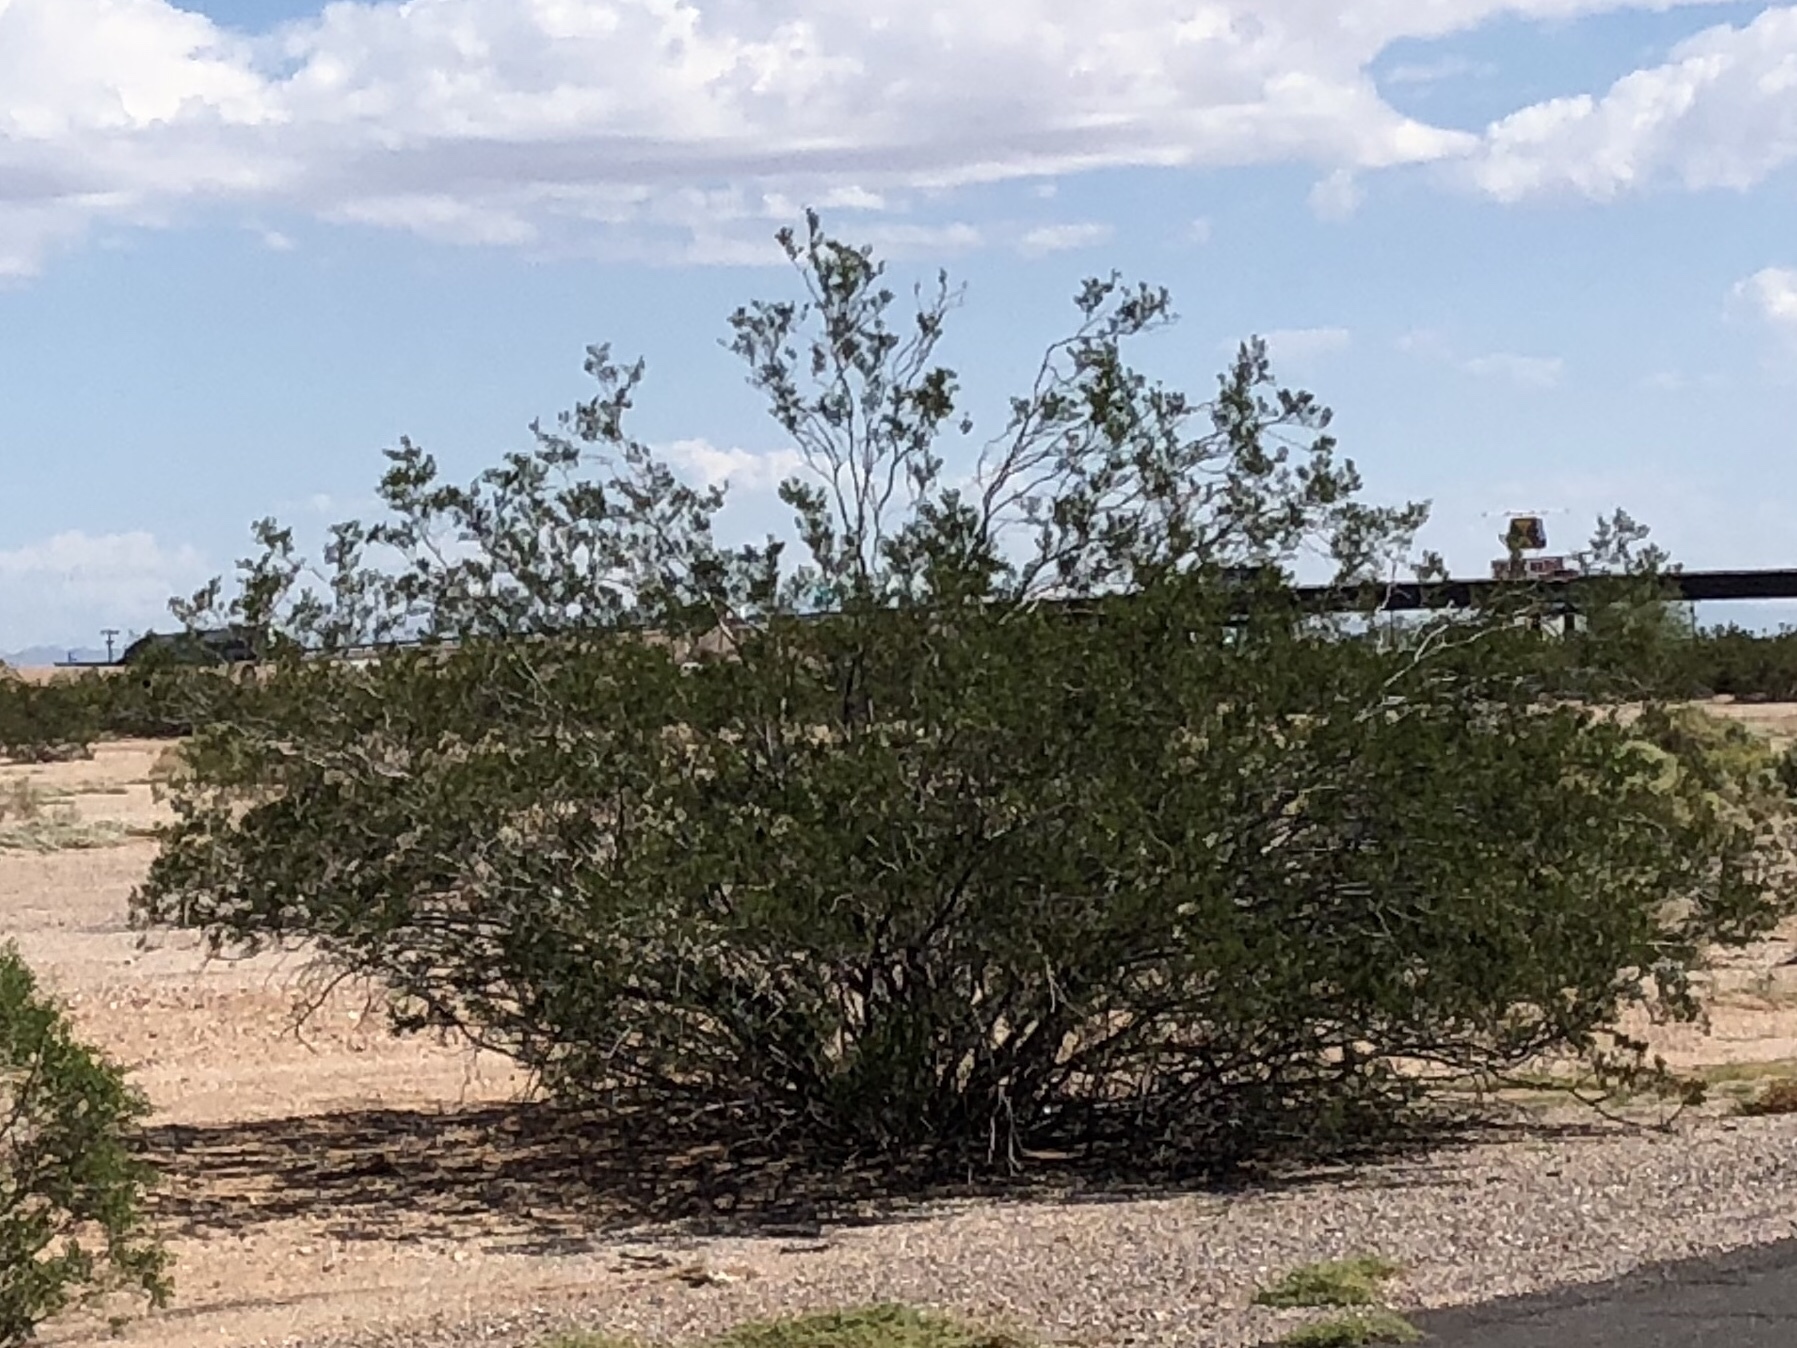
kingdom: Plantae
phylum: Tracheophyta
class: Magnoliopsida
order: Zygophyllales
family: Zygophyllaceae
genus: Larrea
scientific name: Larrea tridentata
